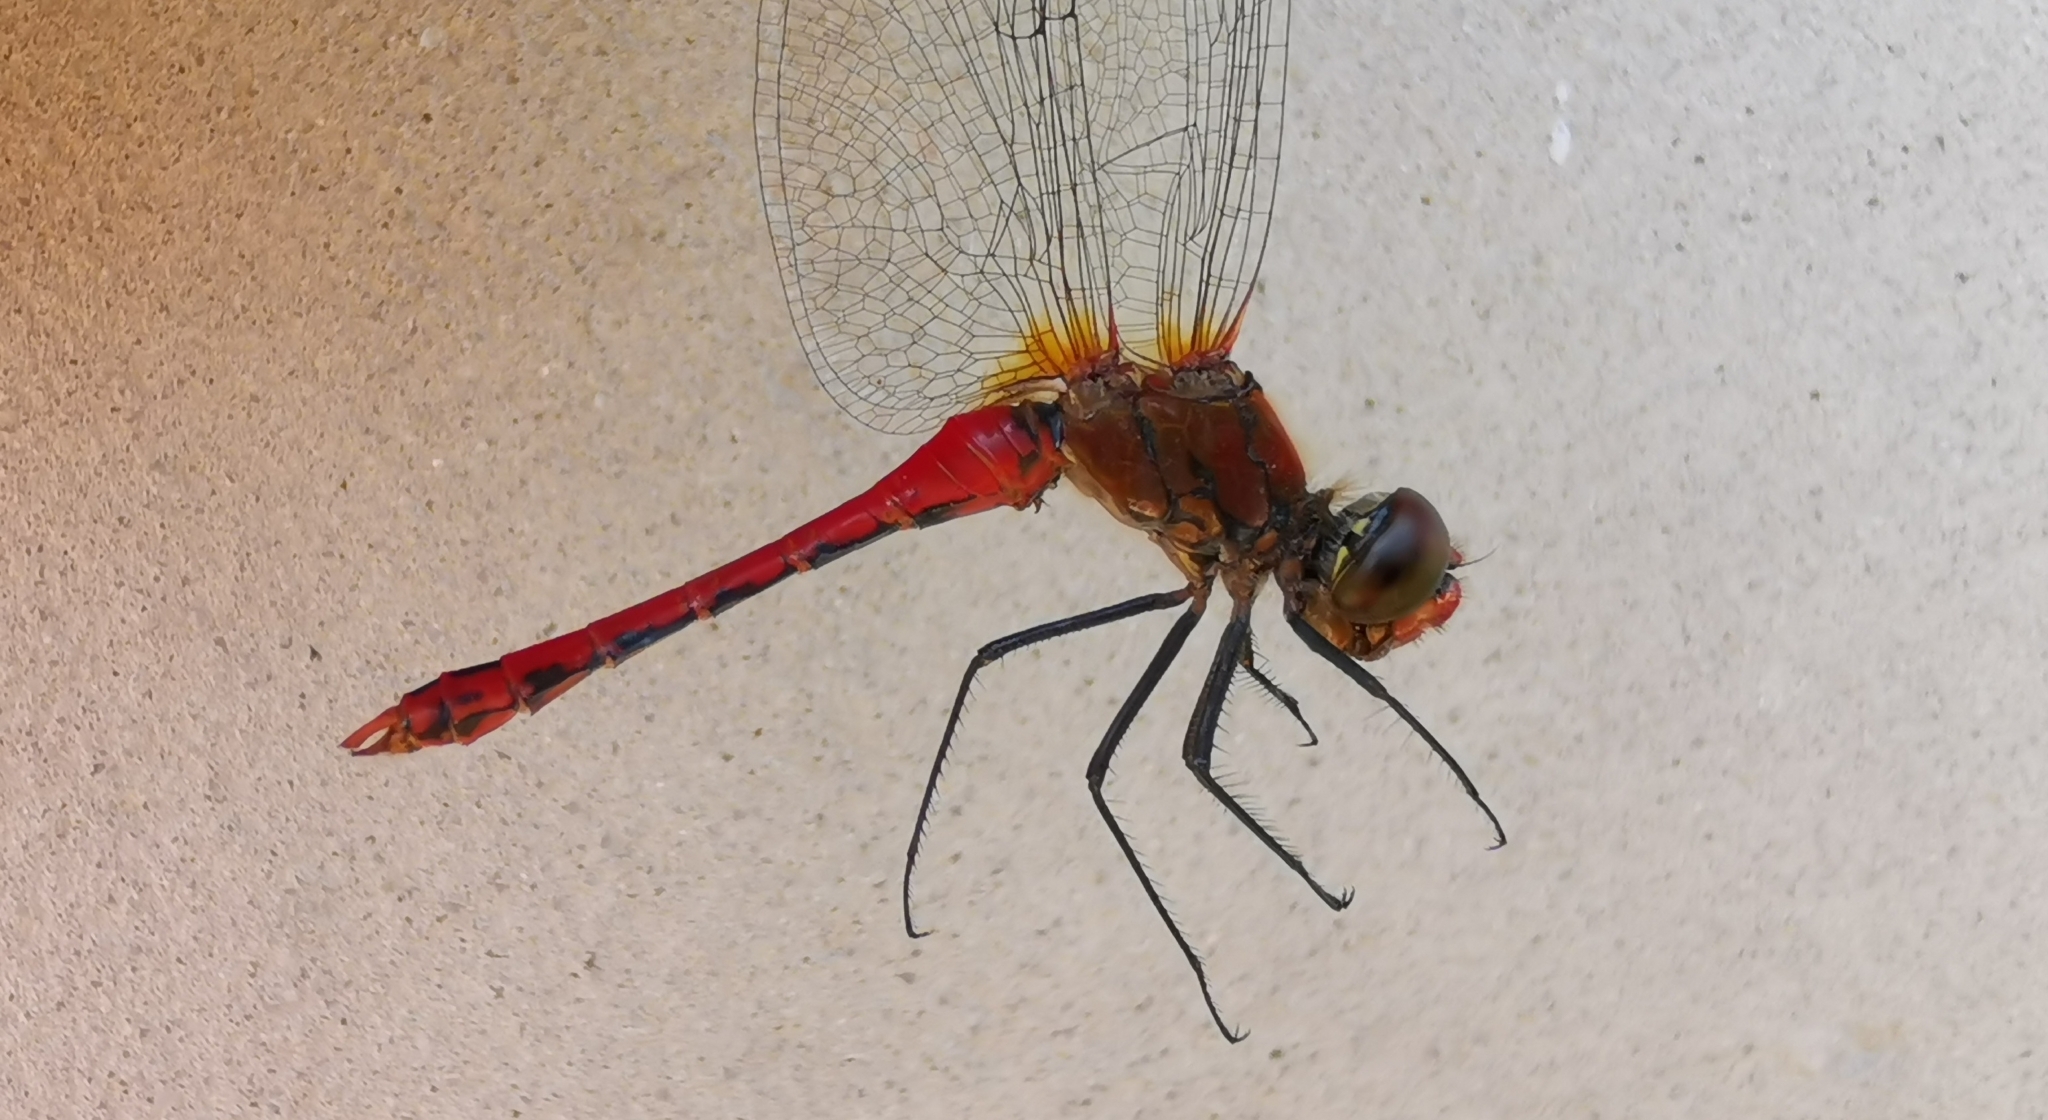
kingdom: Animalia
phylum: Arthropoda
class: Insecta
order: Odonata
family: Libellulidae
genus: Sympetrum
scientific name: Sympetrum sanguineum
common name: Ruddy darter
